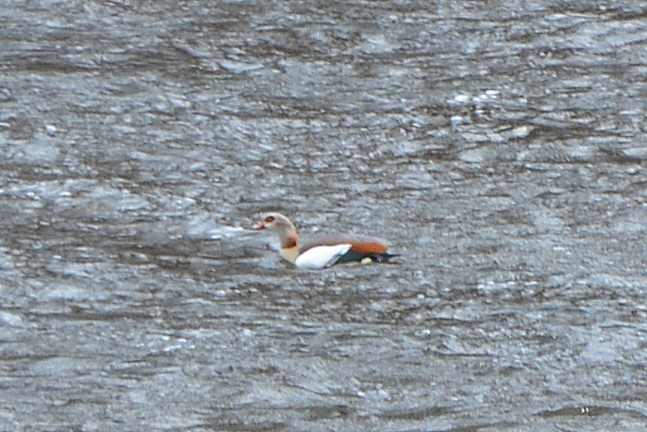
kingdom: Animalia
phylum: Chordata
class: Aves
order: Anseriformes
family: Anatidae
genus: Alopochen
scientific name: Alopochen aegyptiaca
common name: Egyptian goose
